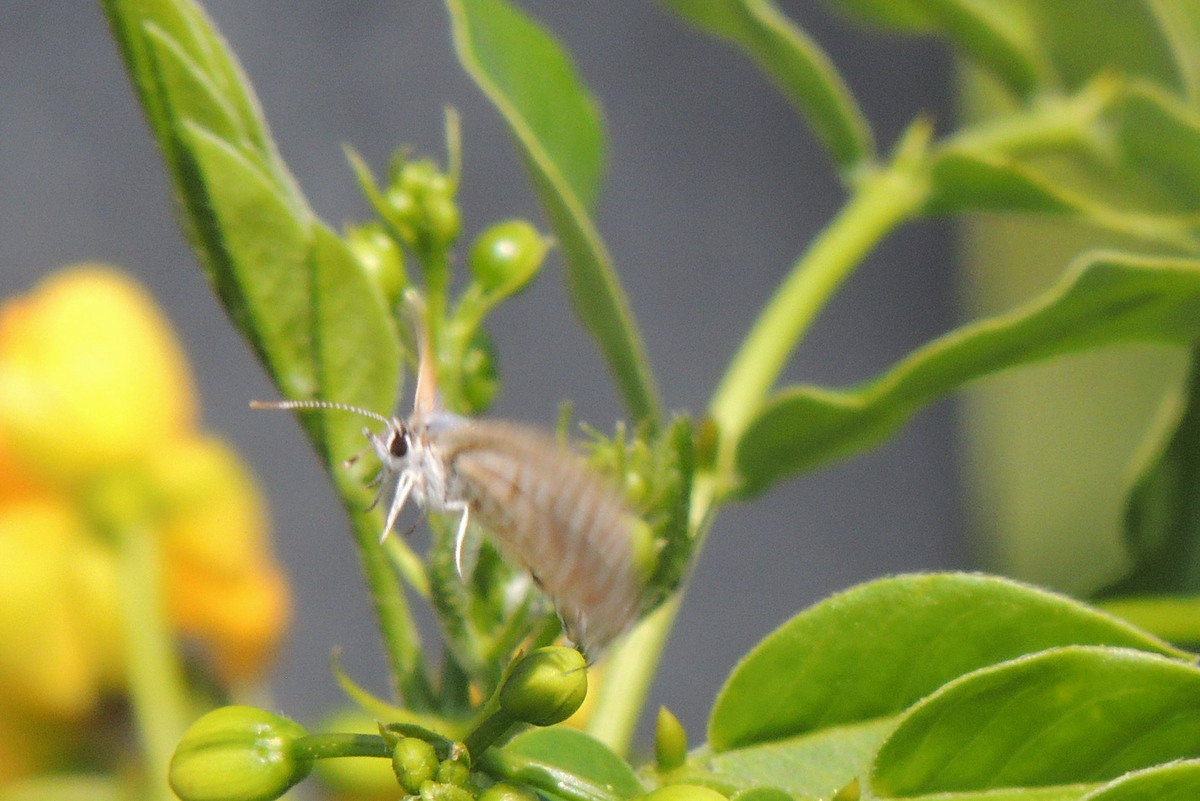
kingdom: Animalia
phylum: Arthropoda
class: Insecta
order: Lepidoptera
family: Lycaenidae
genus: Leptotes
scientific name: Leptotes pirithous
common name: Lang's short-tailed blue
